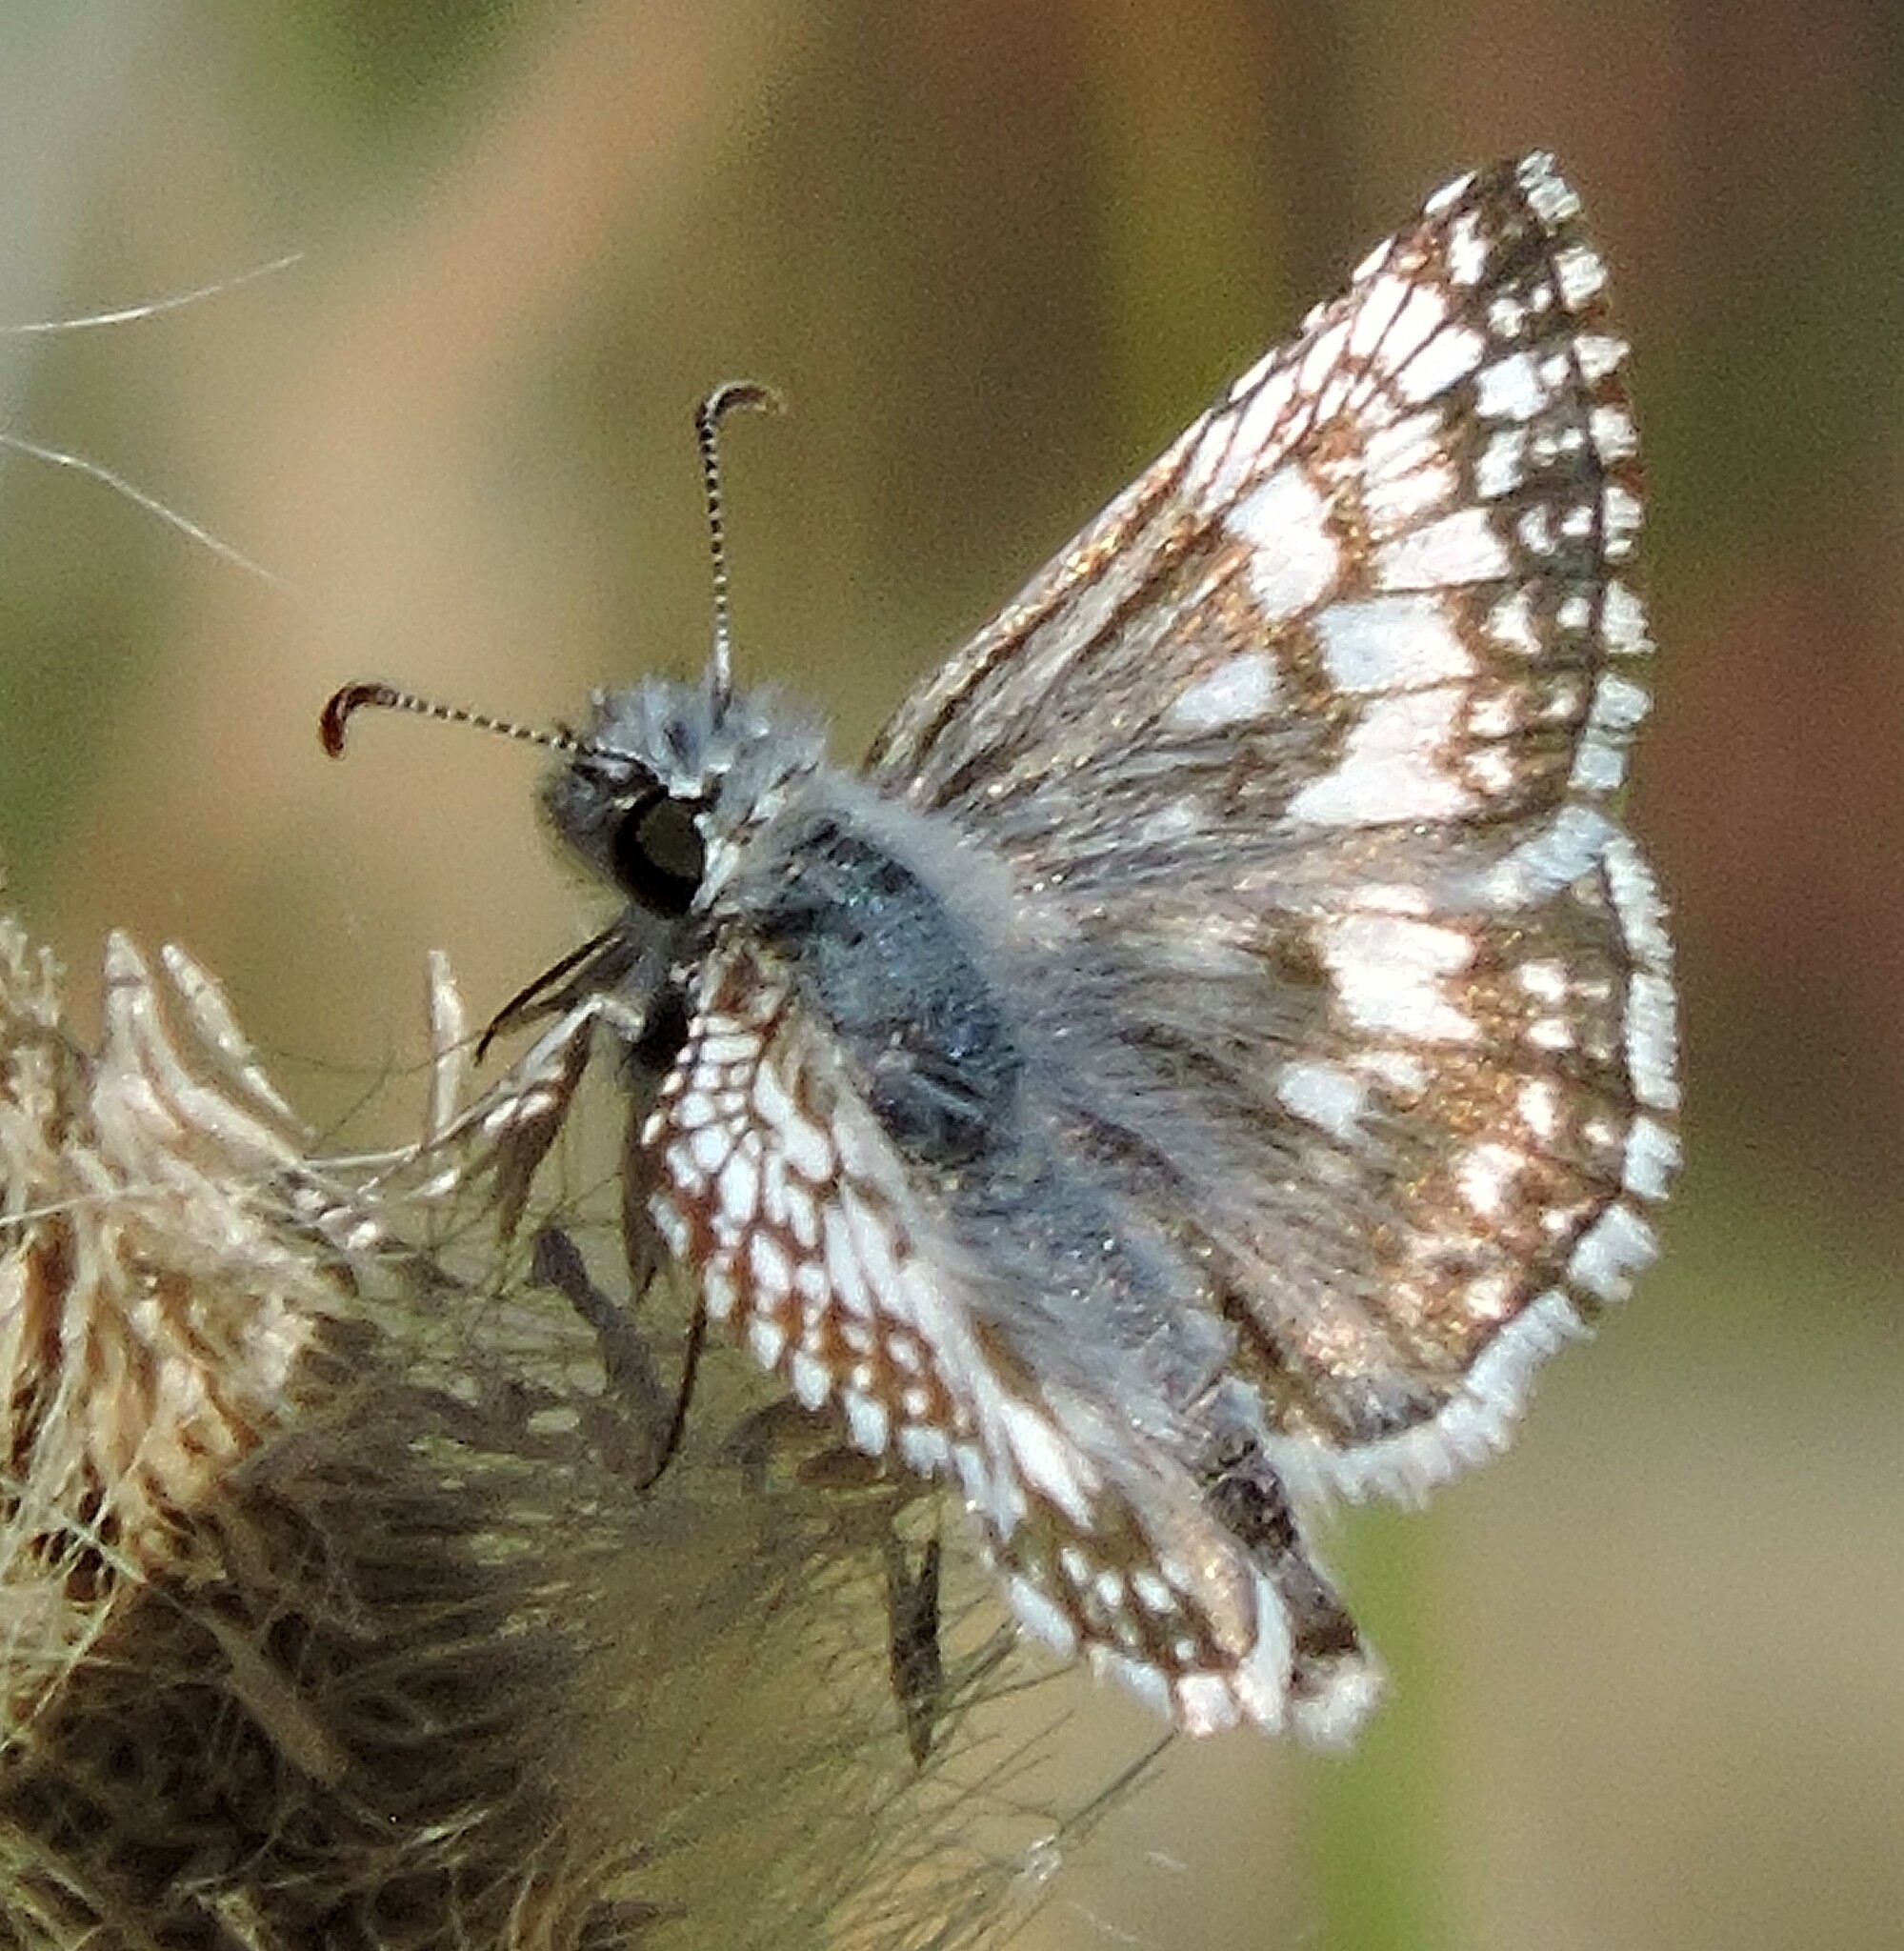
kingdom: Animalia
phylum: Arthropoda
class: Insecta
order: Lepidoptera
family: Hesperiidae
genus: Burnsius
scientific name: Burnsius communis
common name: Common checkered-skipper
